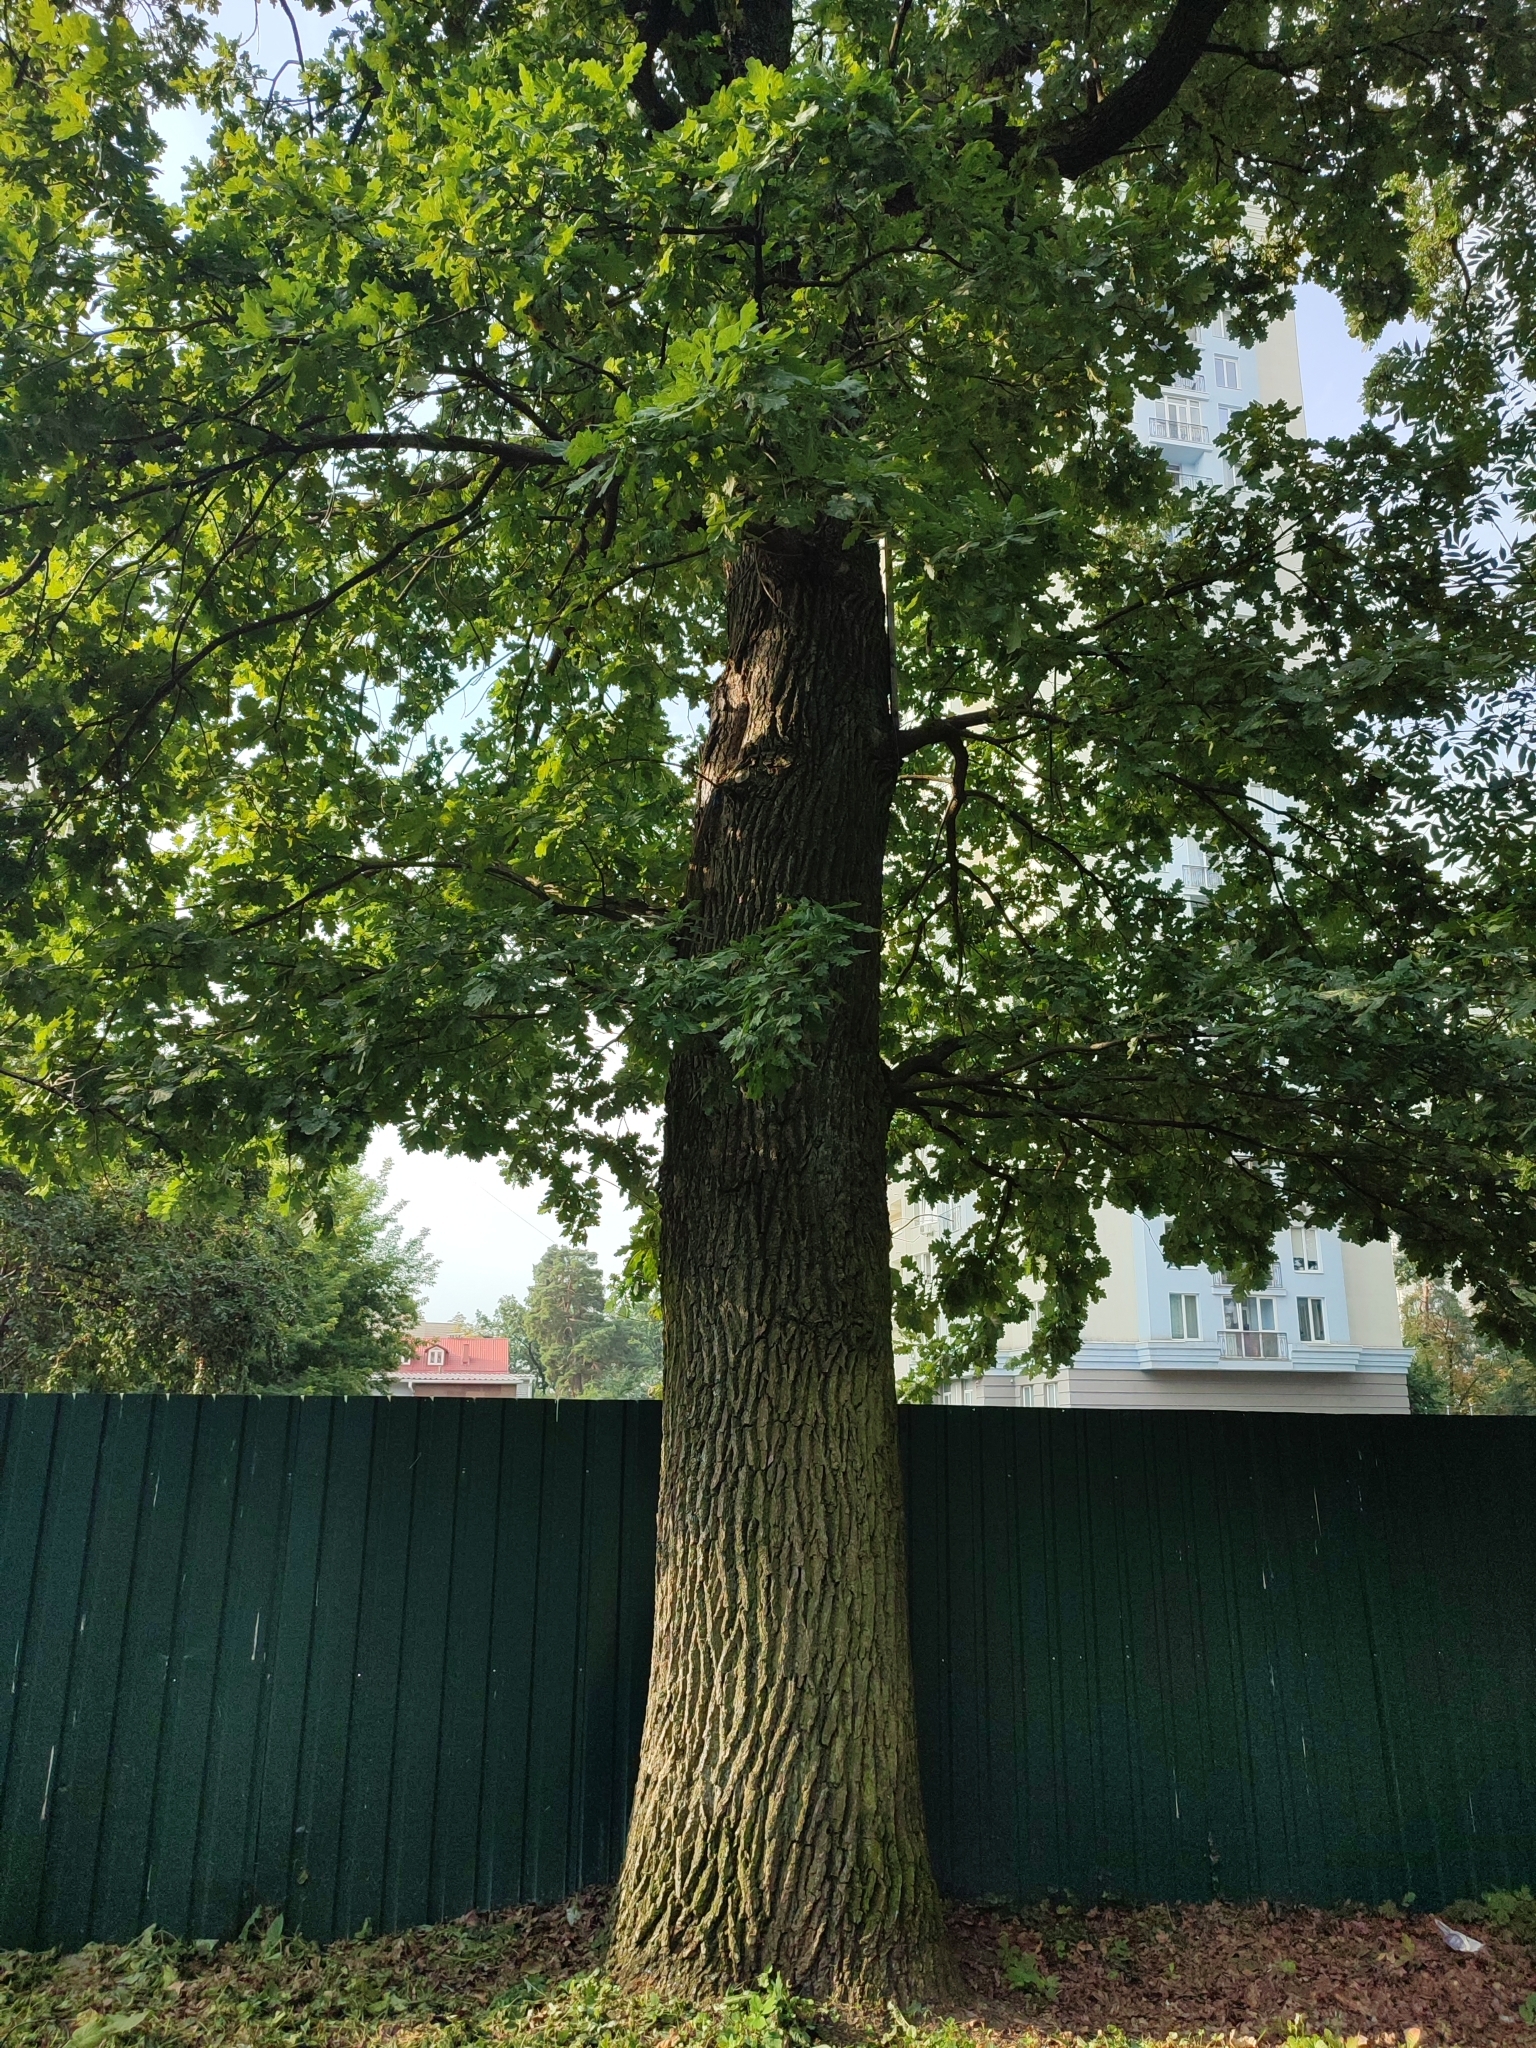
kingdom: Plantae
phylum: Tracheophyta
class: Magnoliopsida
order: Fagales
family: Fagaceae
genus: Quercus
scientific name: Quercus robur
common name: Pedunculate oak
